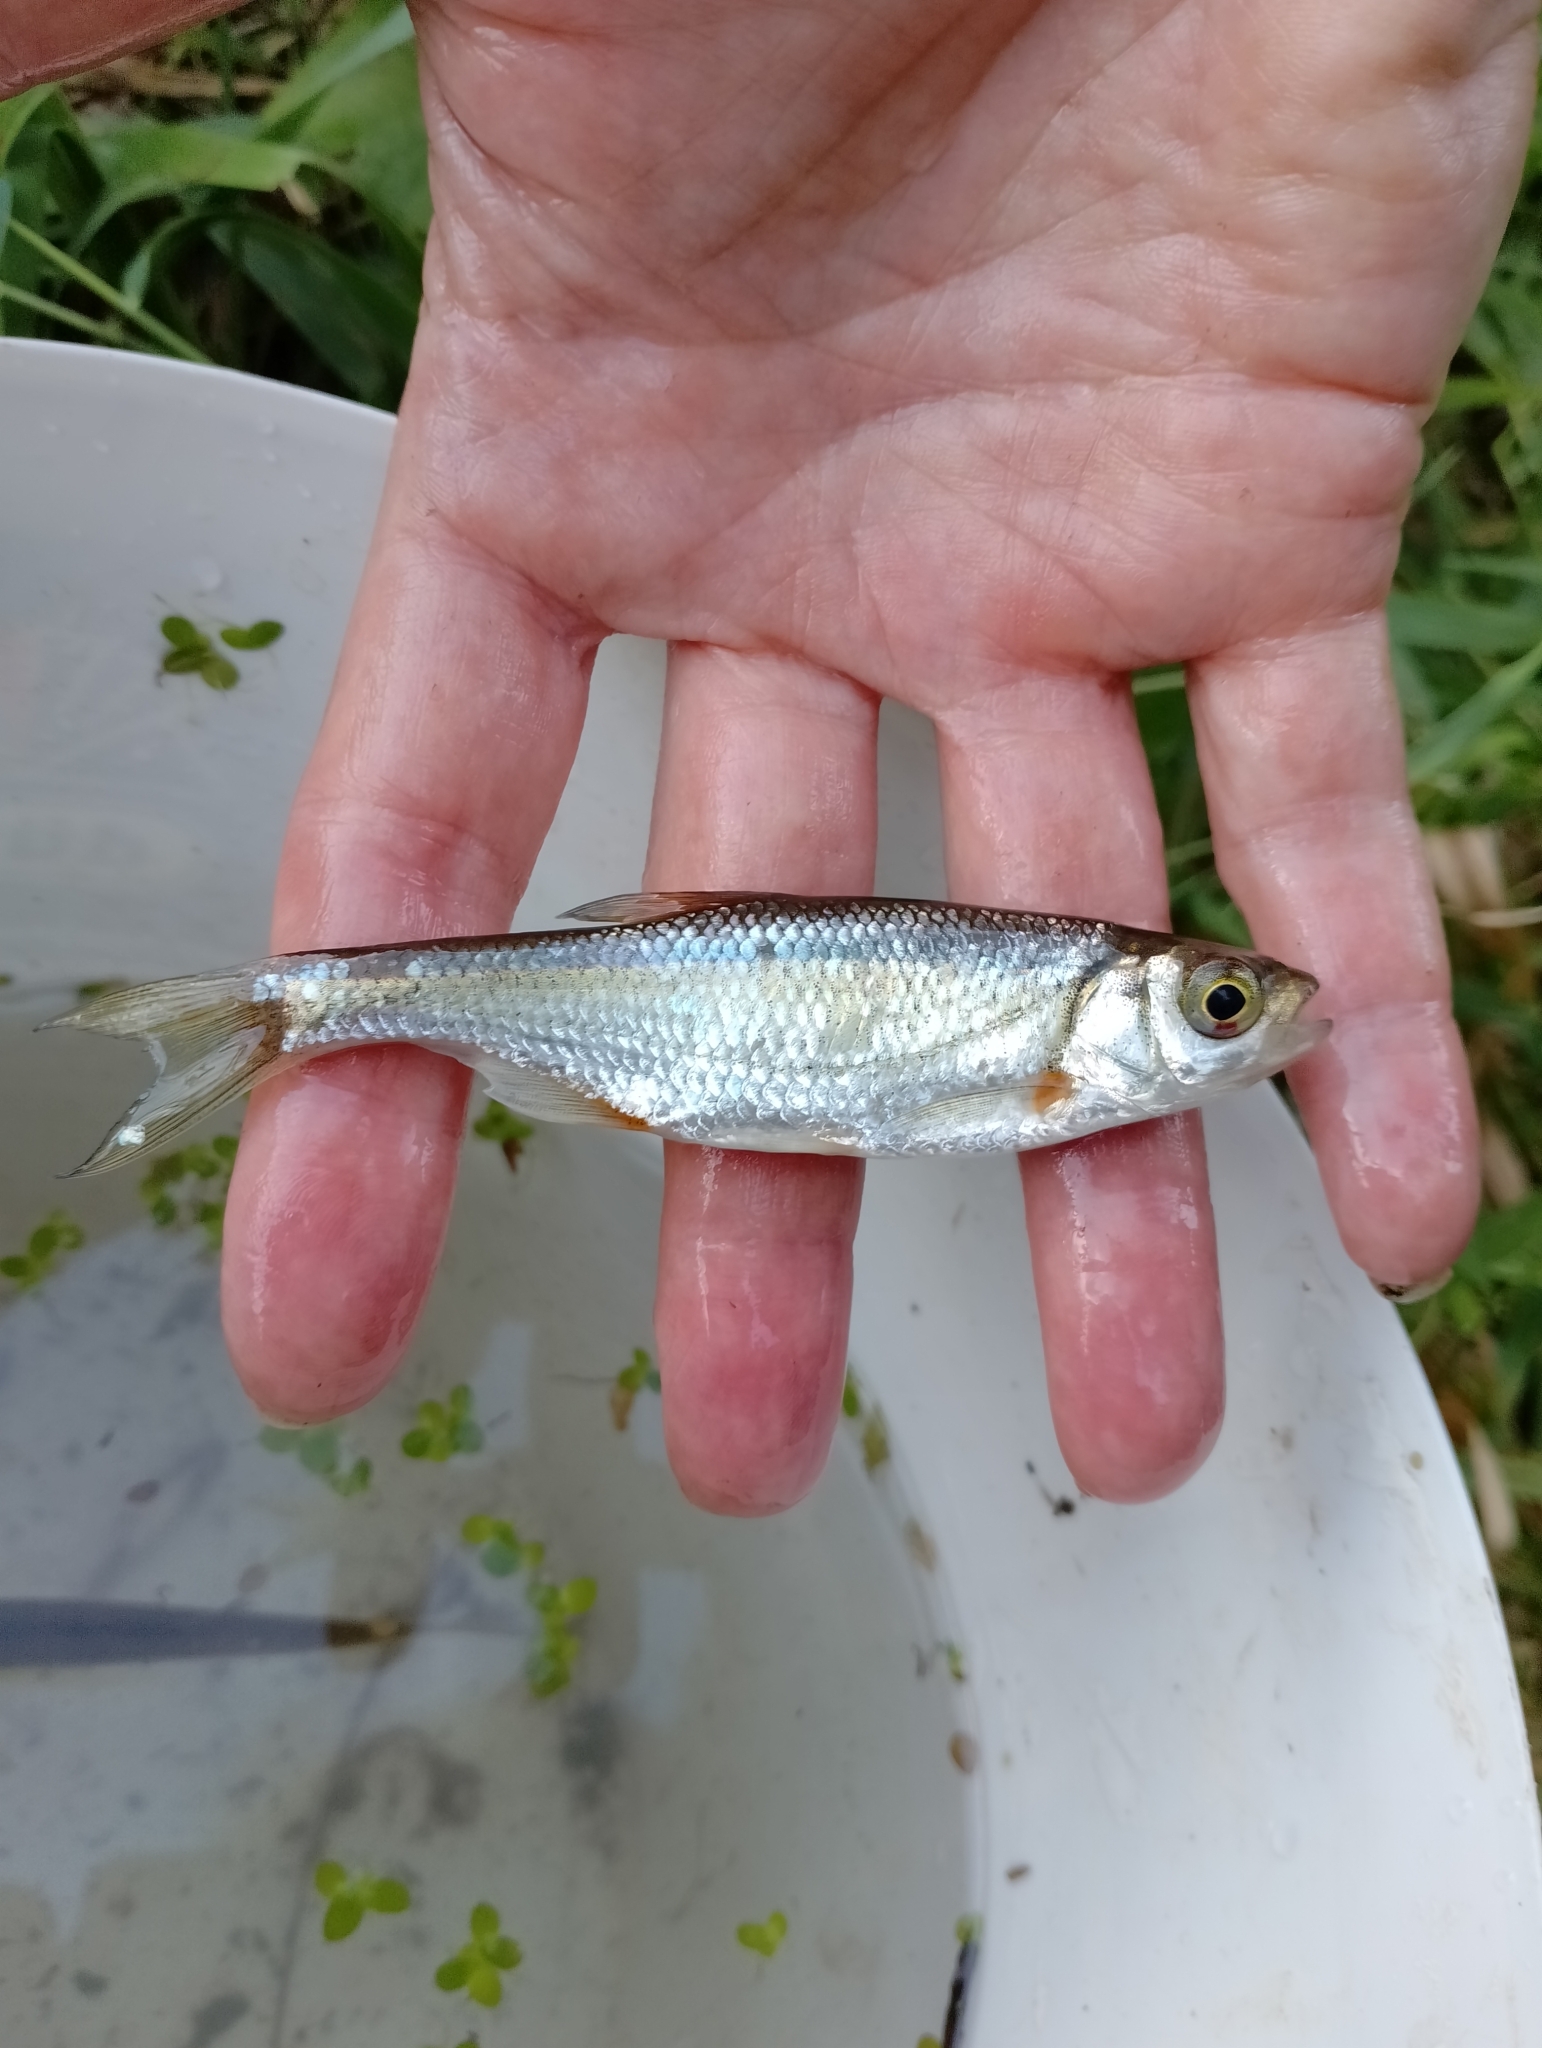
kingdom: Animalia
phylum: Chordata
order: Cypriniformes
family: Cyprinidae
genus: Alburnoides
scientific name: Alburnoides rossicus
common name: Russian spirlin
